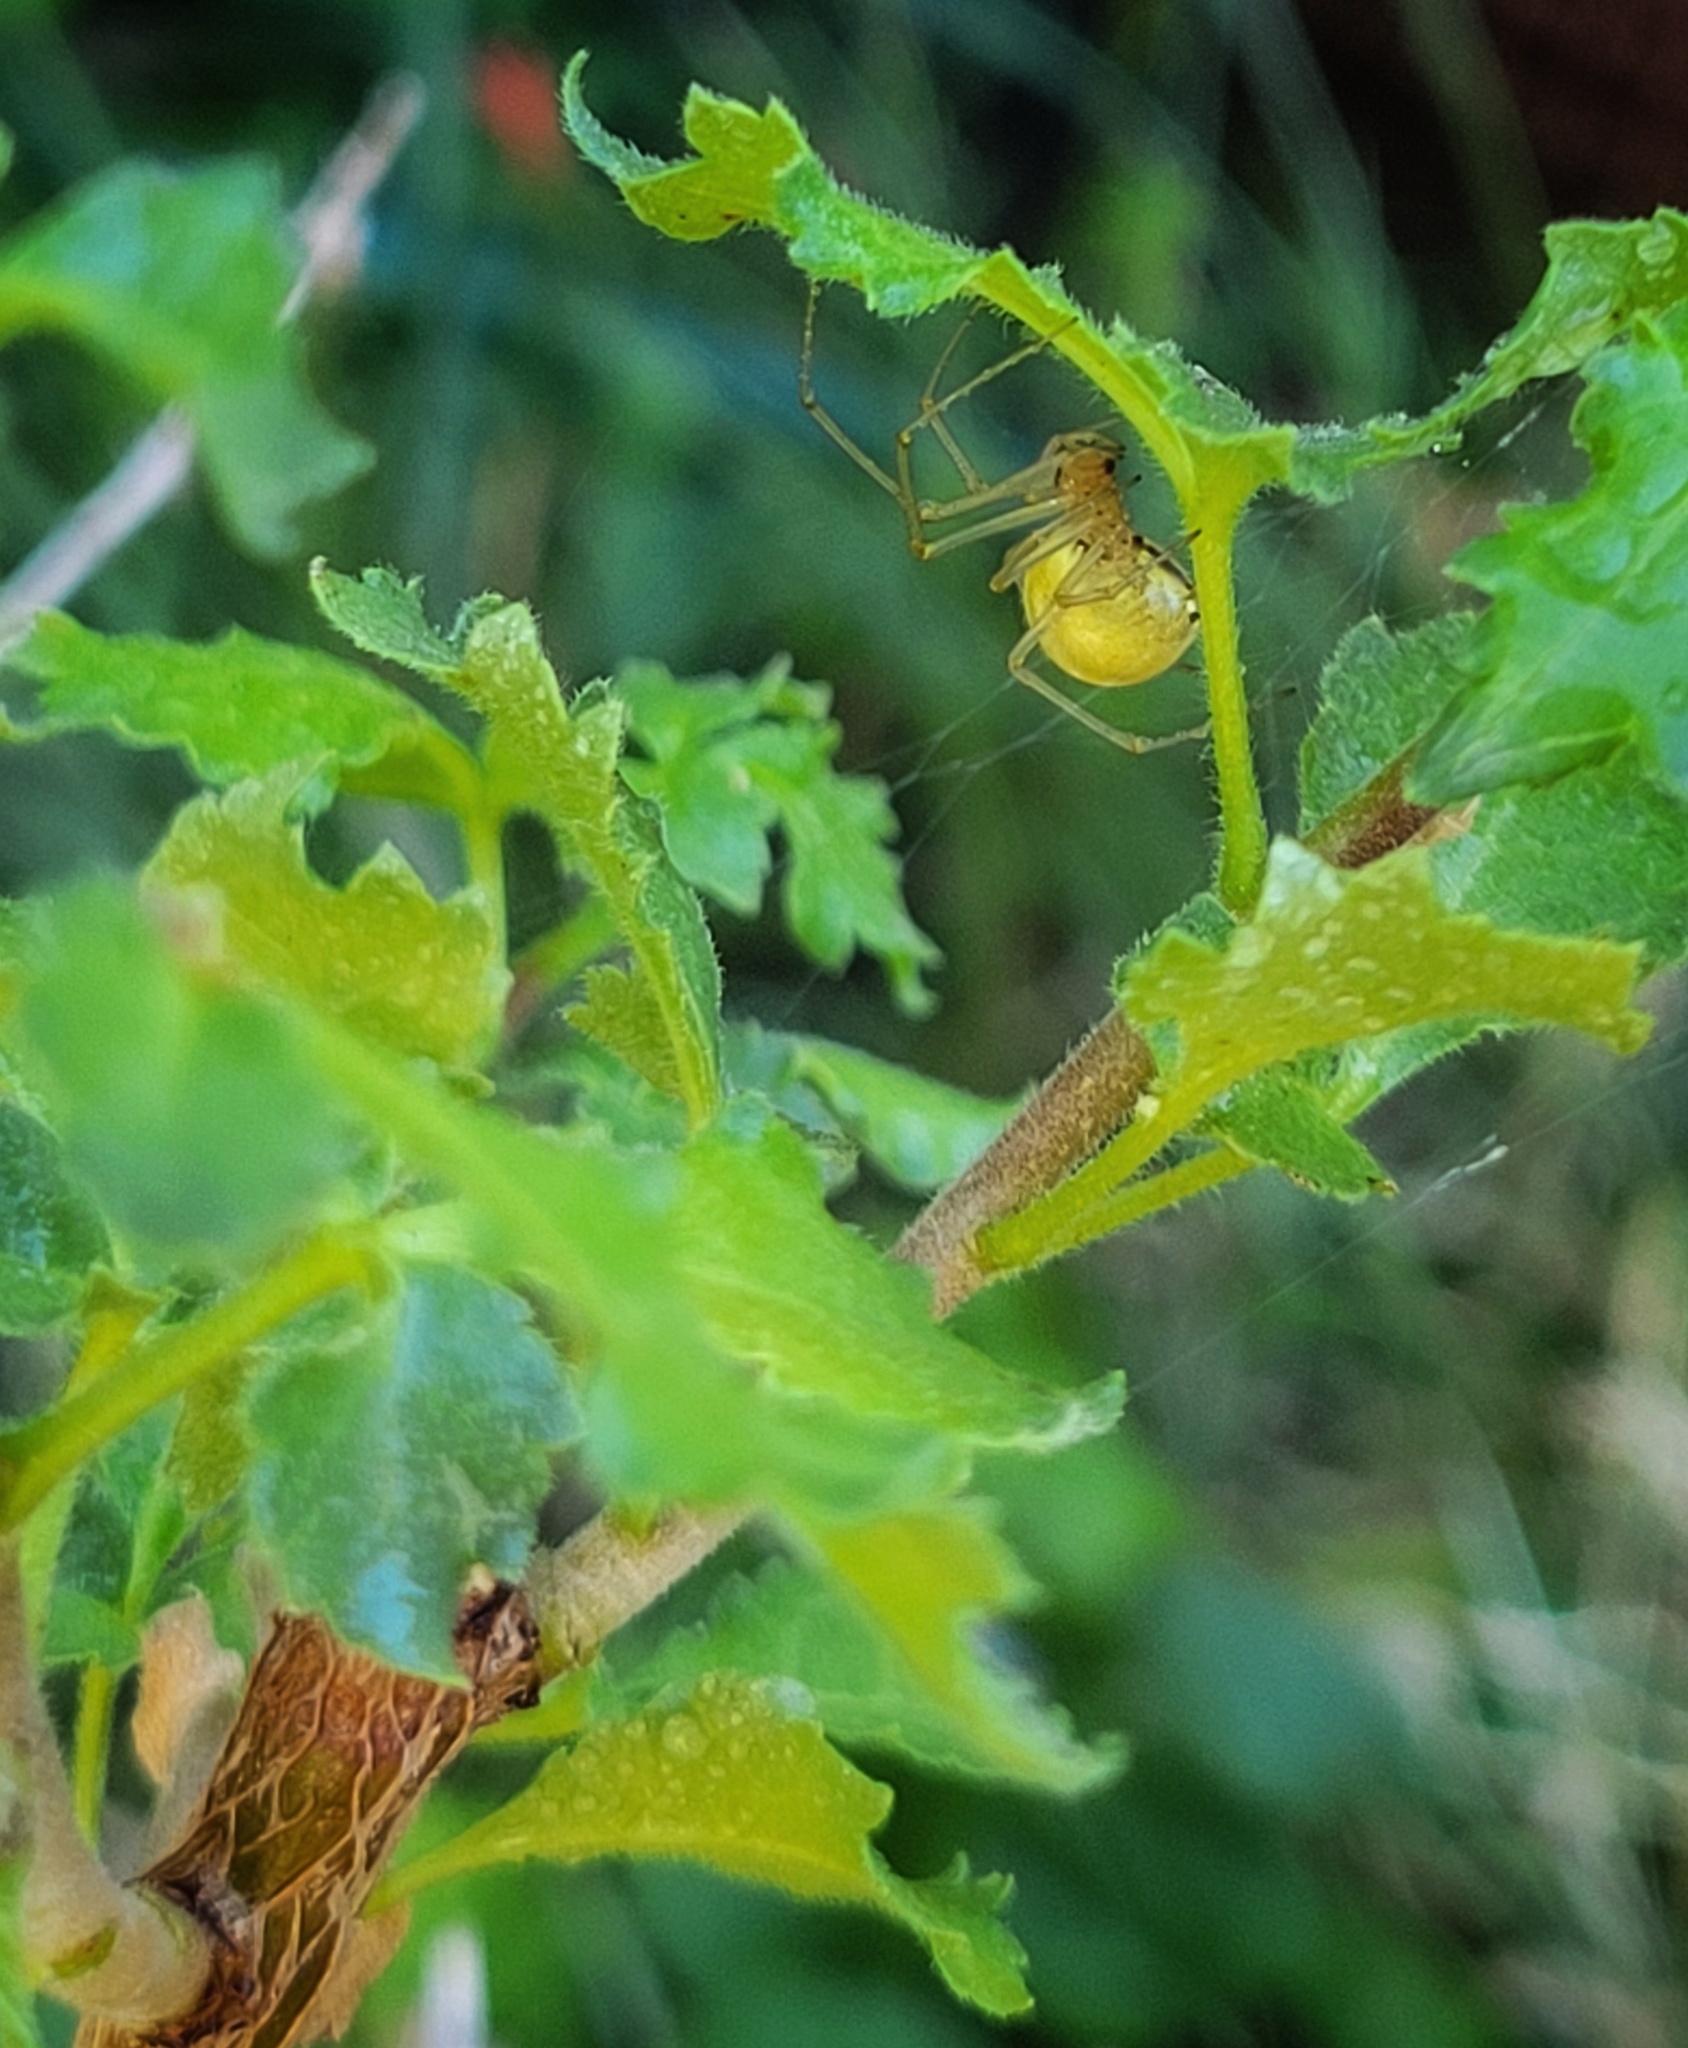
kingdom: Animalia
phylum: Arthropoda
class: Arachnida
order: Araneae
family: Theridiidae
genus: Enoplognatha
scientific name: Enoplognatha ovata
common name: Common candy-striped spider
